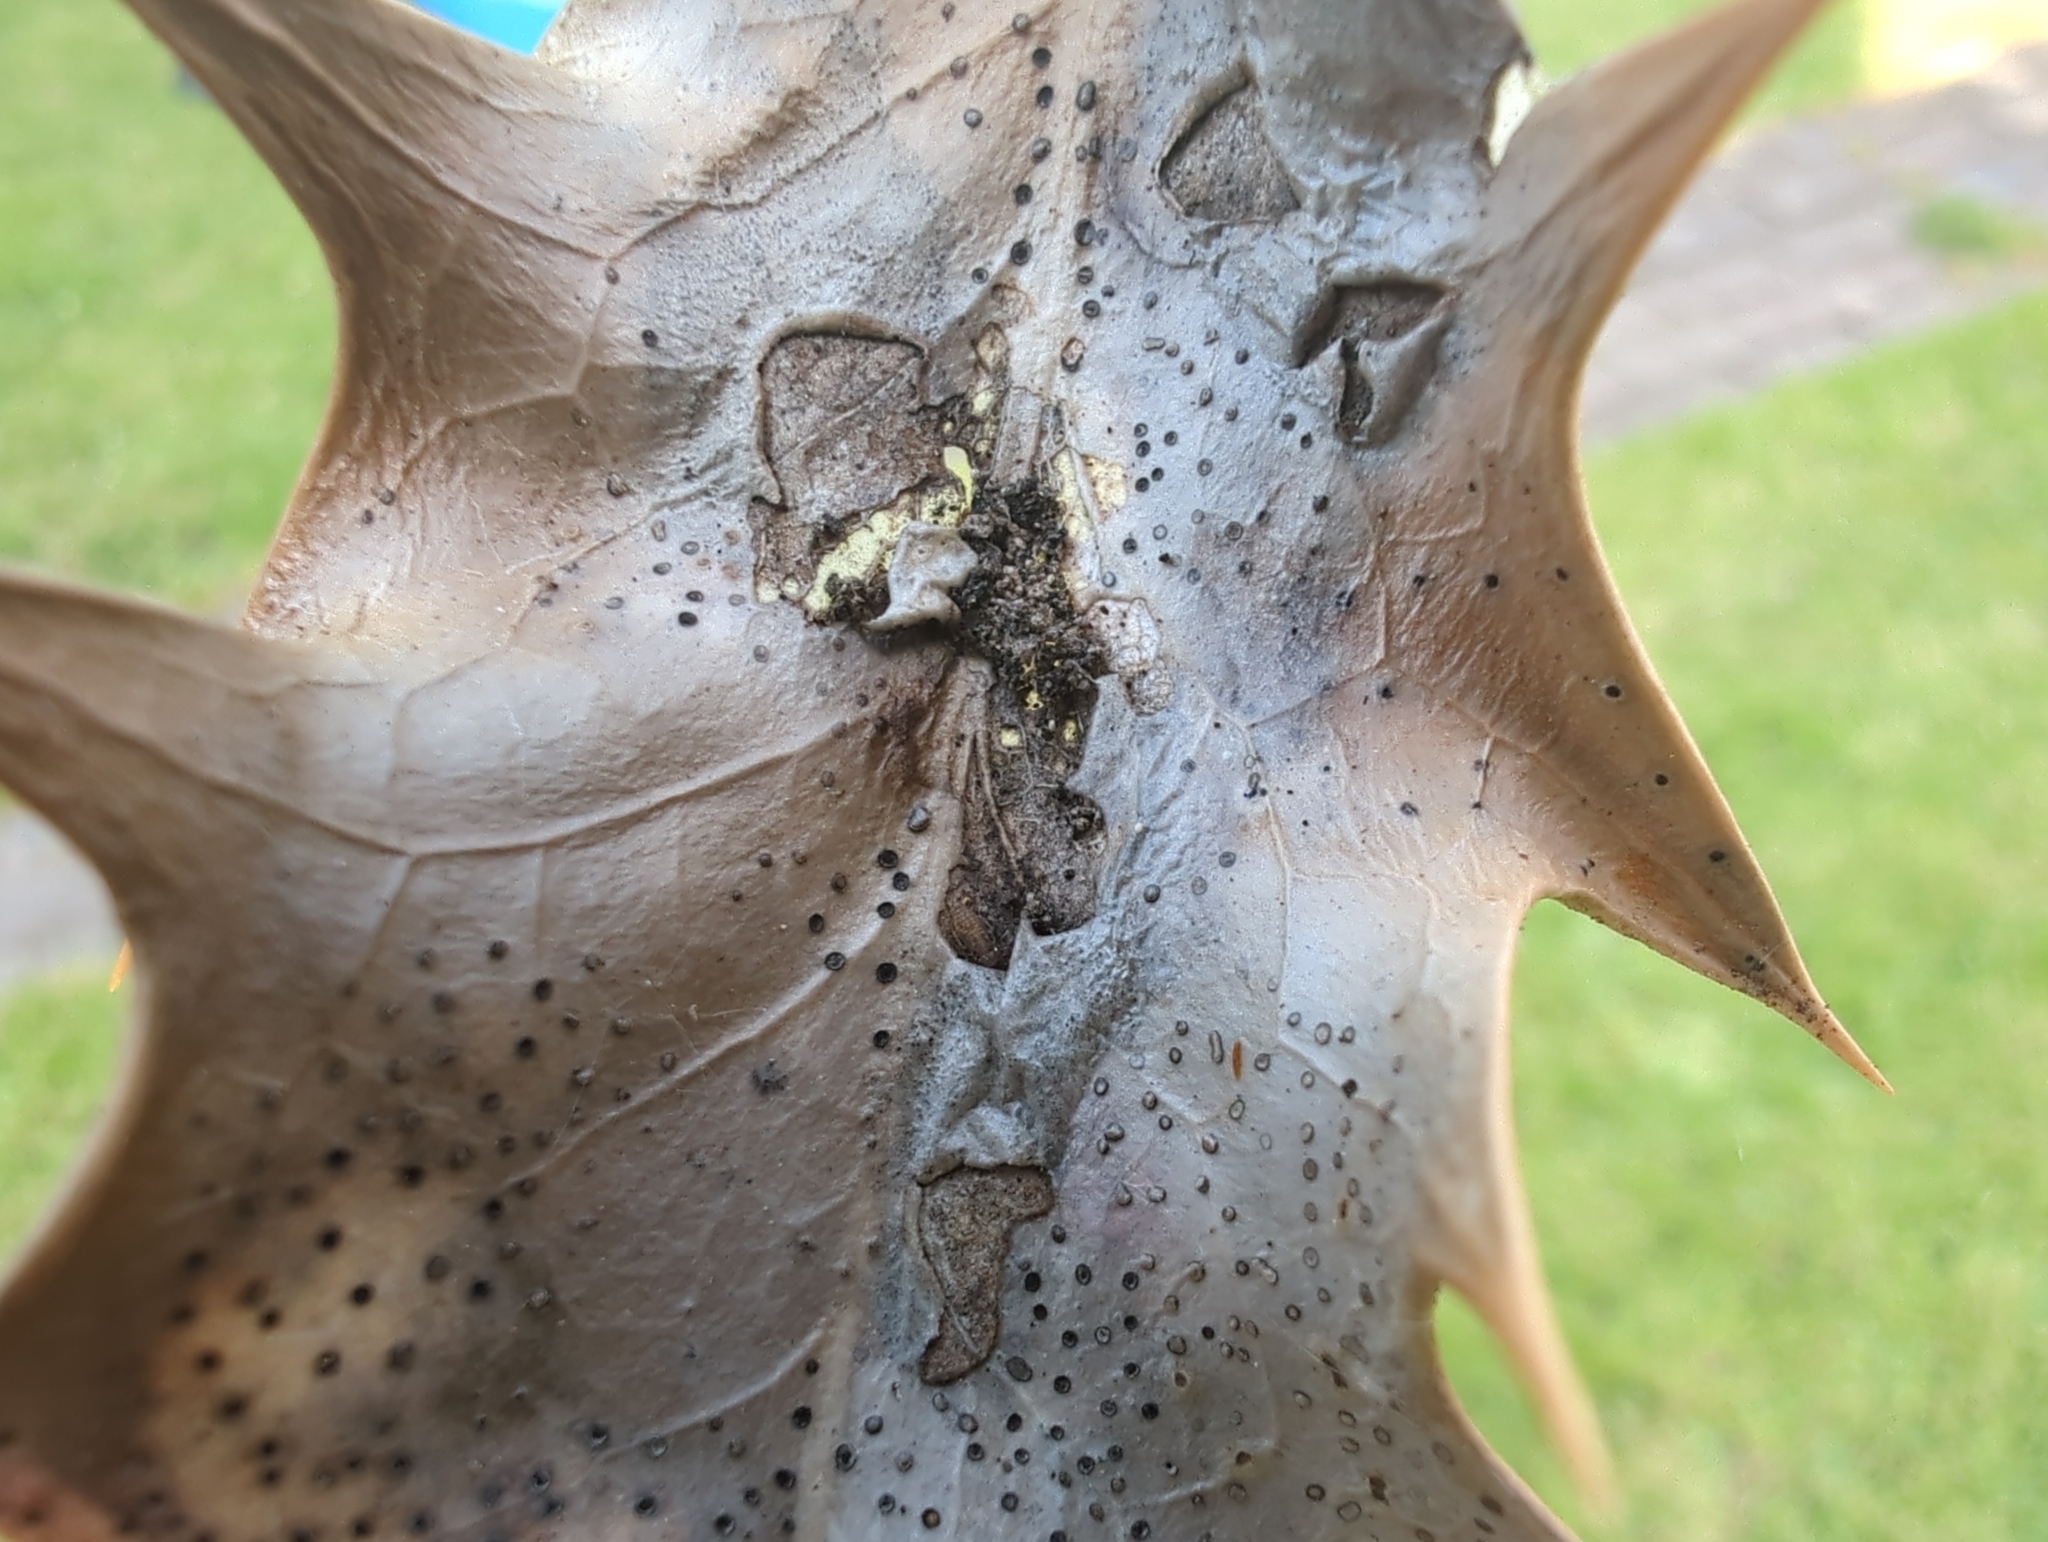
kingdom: Fungi
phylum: Ascomycota
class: Leotiomycetes
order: Phacidiales
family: Phacidiaceae
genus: Phacidium
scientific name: Phacidium lauri
